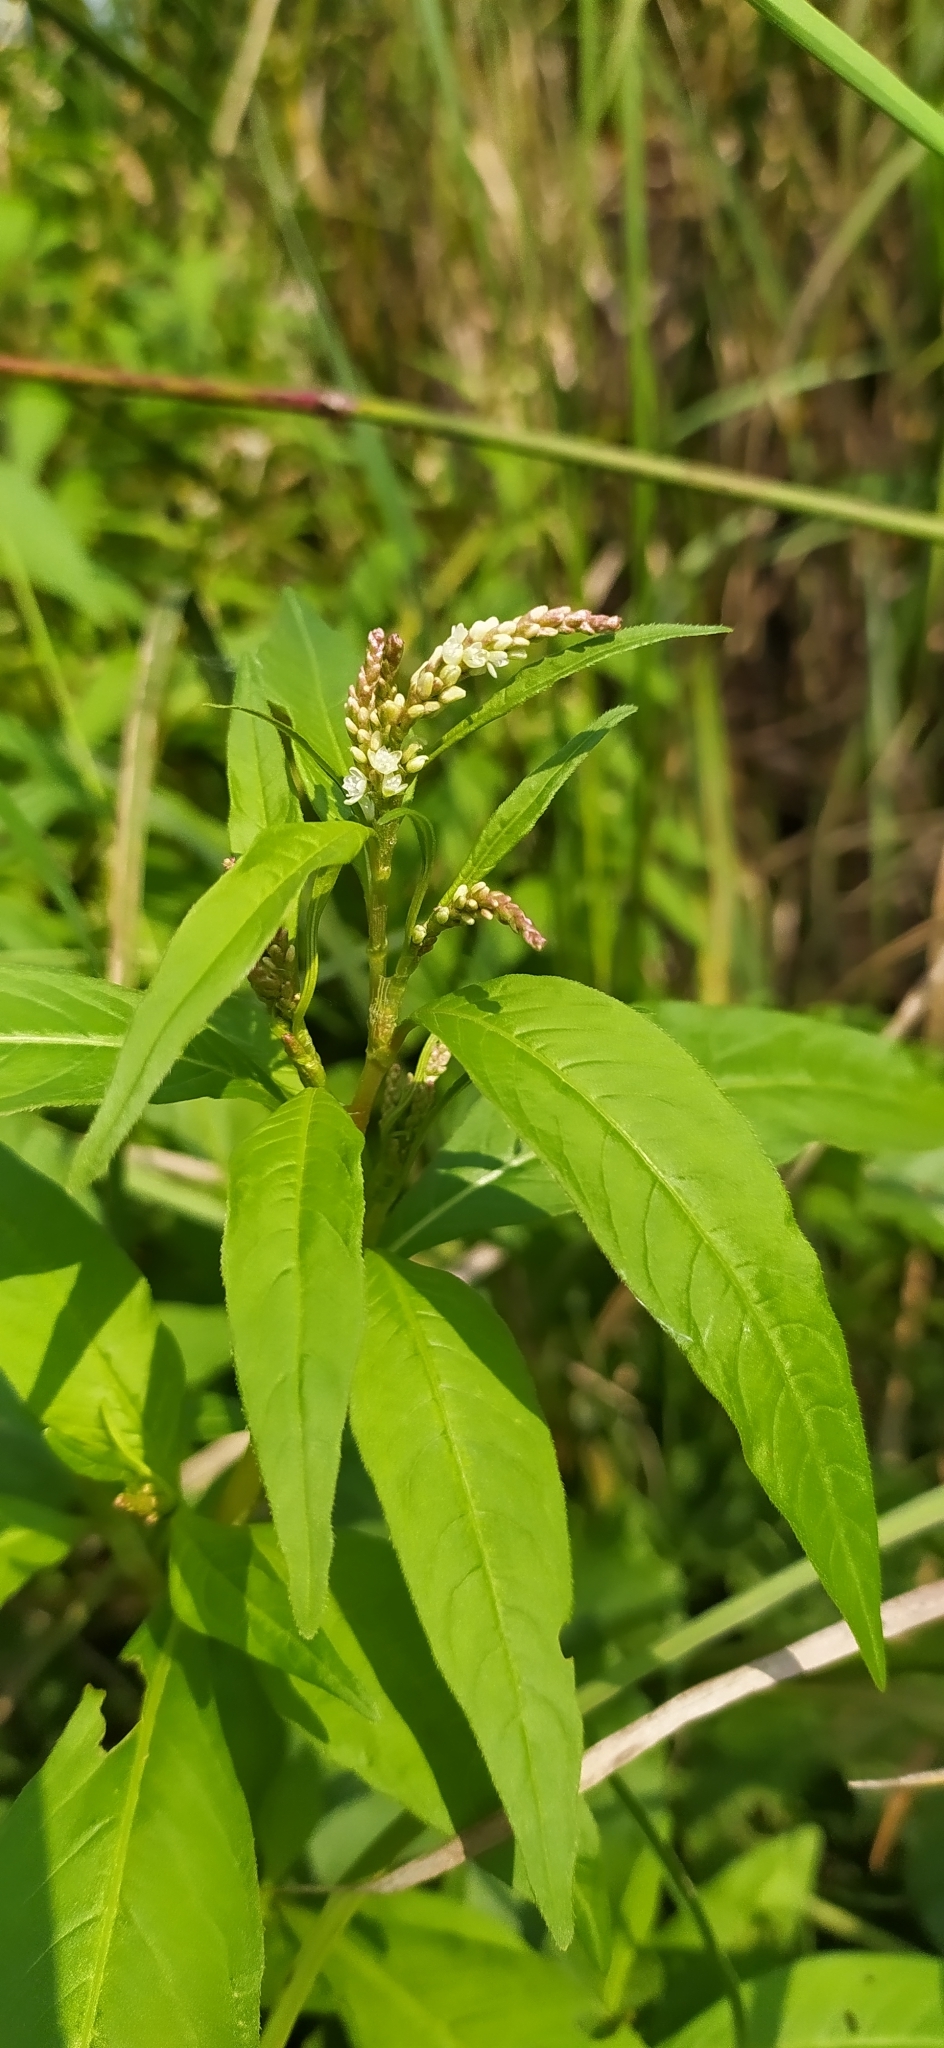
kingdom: Plantae
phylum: Tracheophyta
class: Magnoliopsida
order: Caryophyllales
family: Polygonaceae
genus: Persicaria
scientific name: Persicaria lapathifolia
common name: Curlytop knotweed
